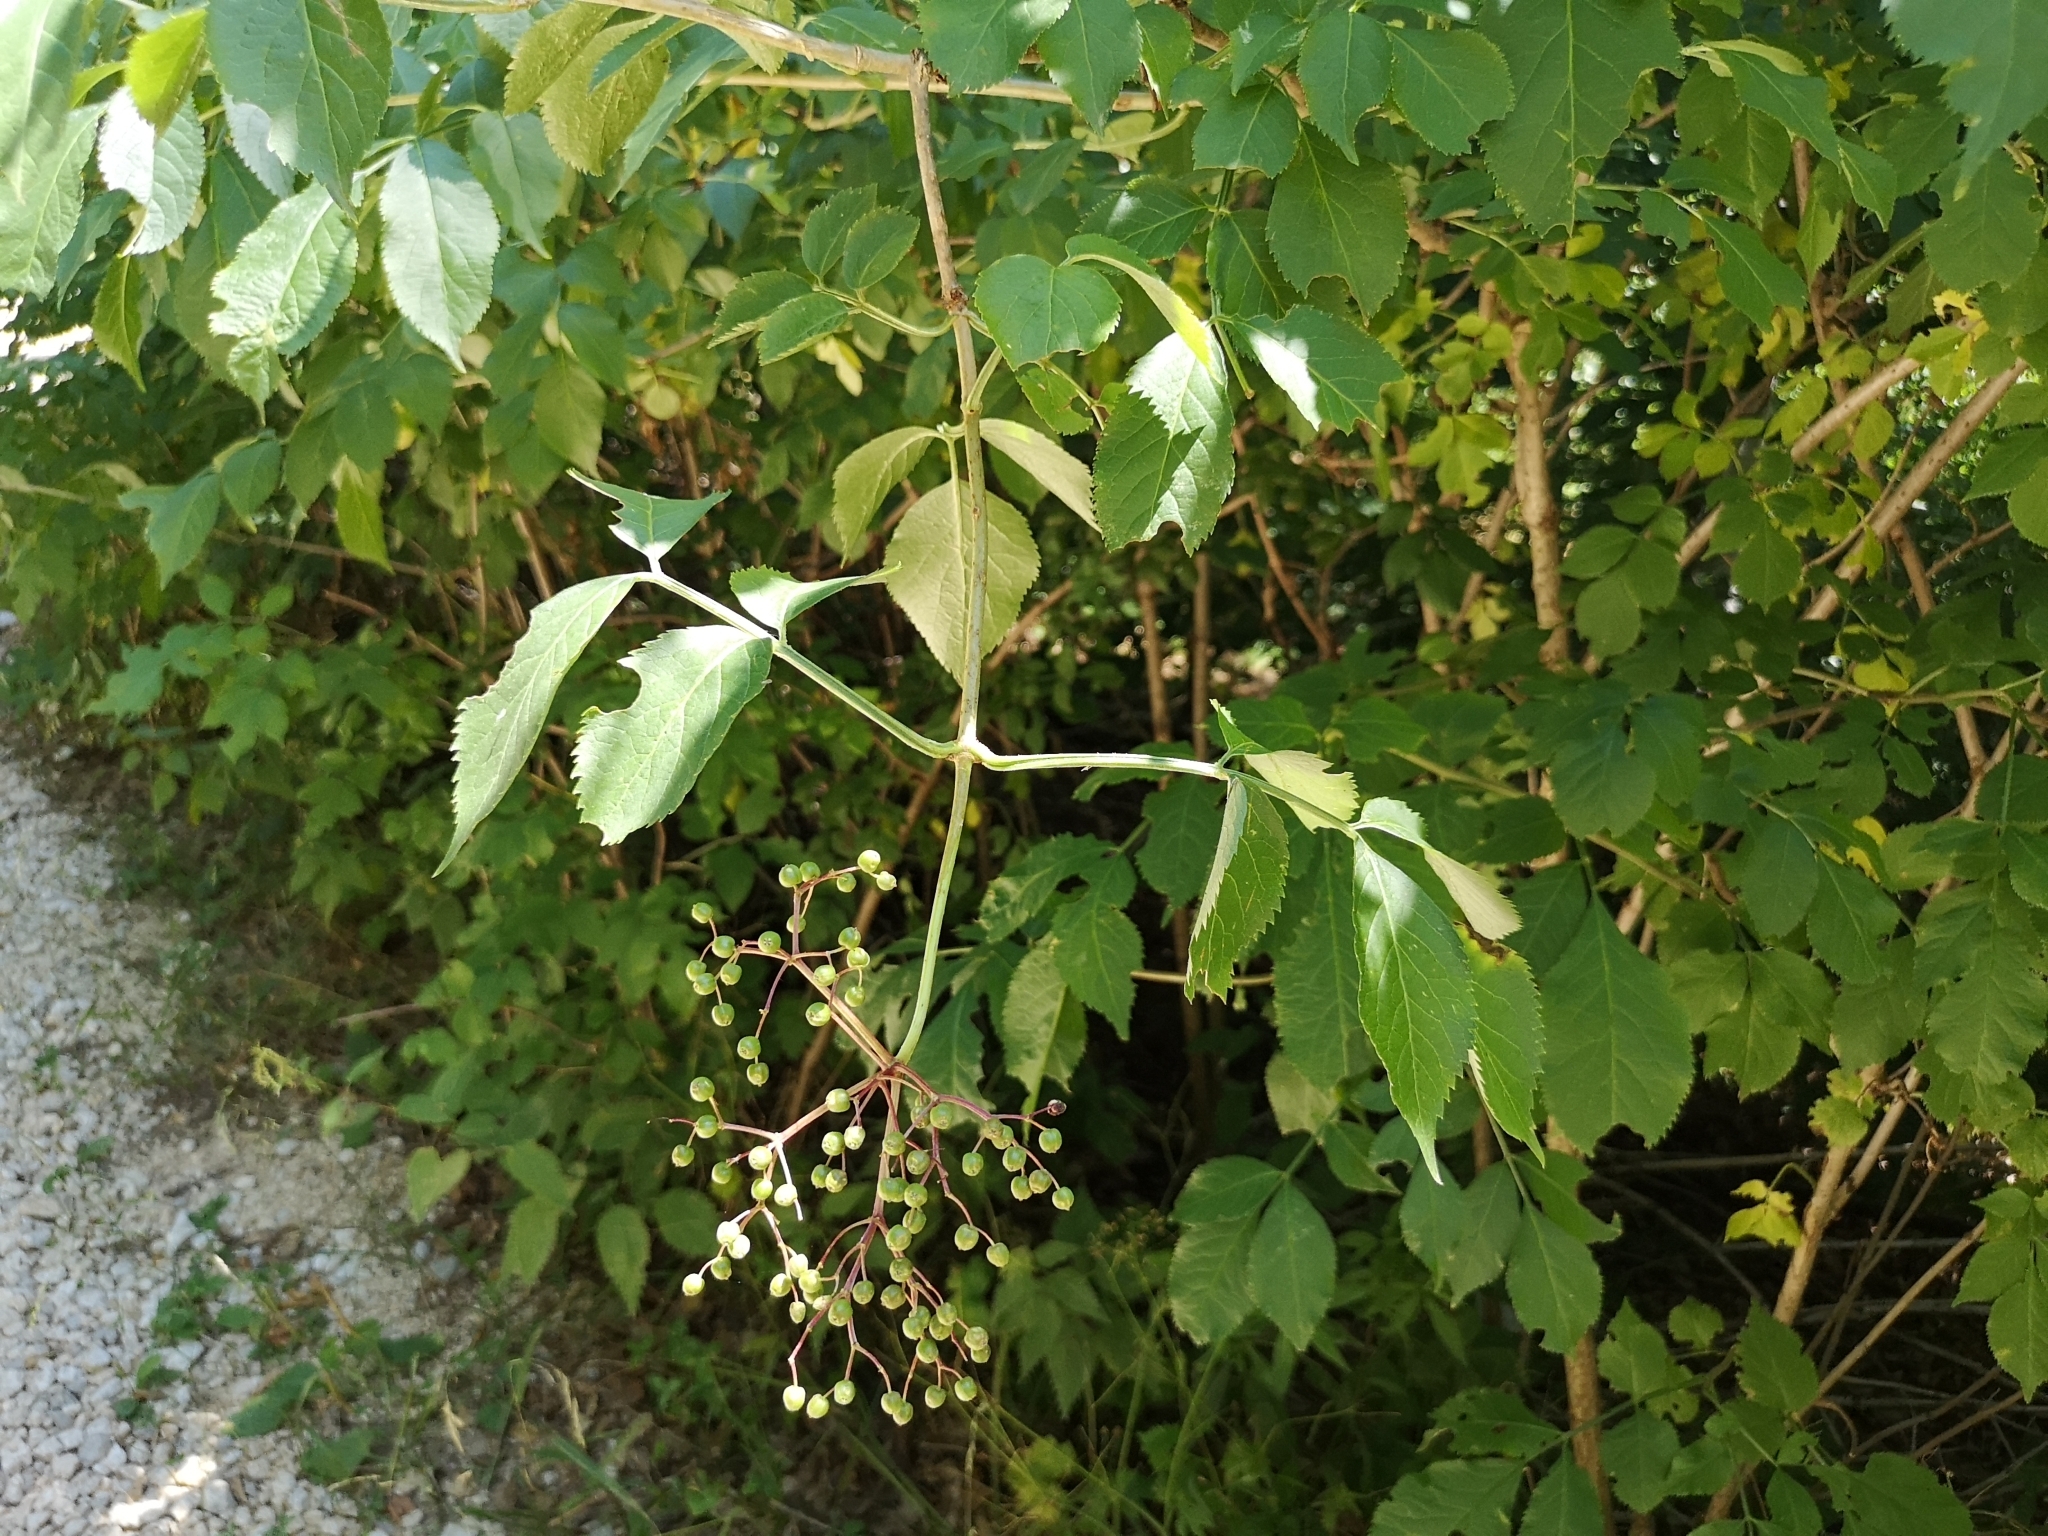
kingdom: Plantae
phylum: Tracheophyta
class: Magnoliopsida
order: Dipsacales
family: Viburnaceae
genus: Sambucus
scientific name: Sambucus nigra
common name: Elder
